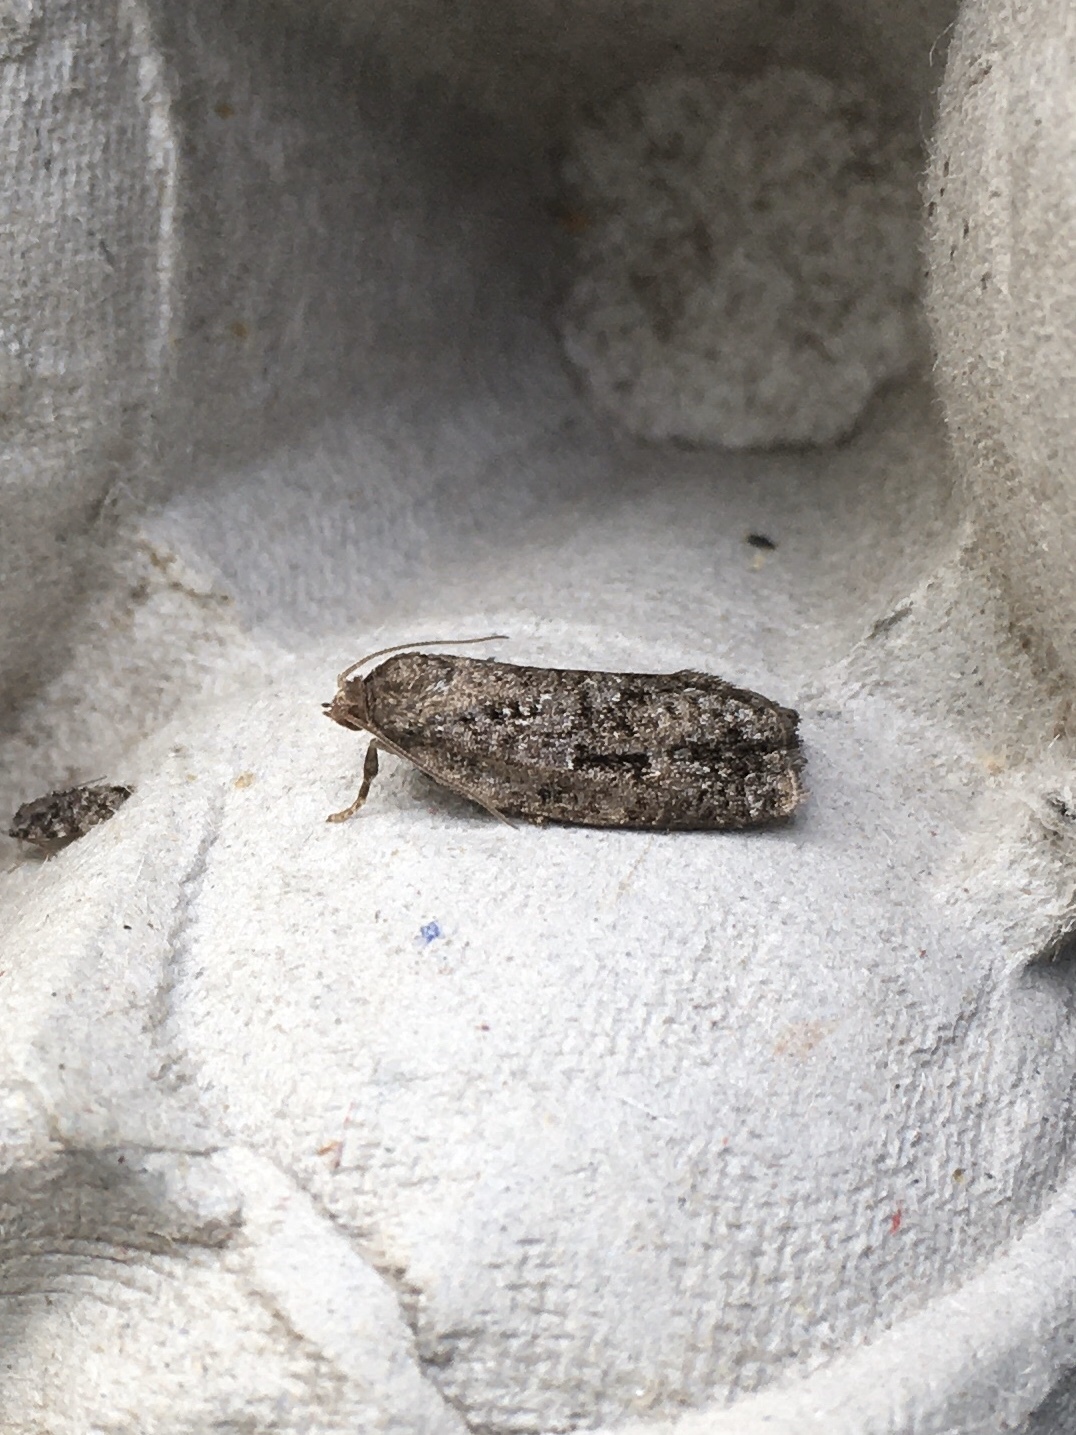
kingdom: Animalia
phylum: Arthropoda
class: Insecta
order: Lepidoptera
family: Tortricidae
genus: Choristoneura
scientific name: Choristoneura fumiferana
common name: Spruce budworm
